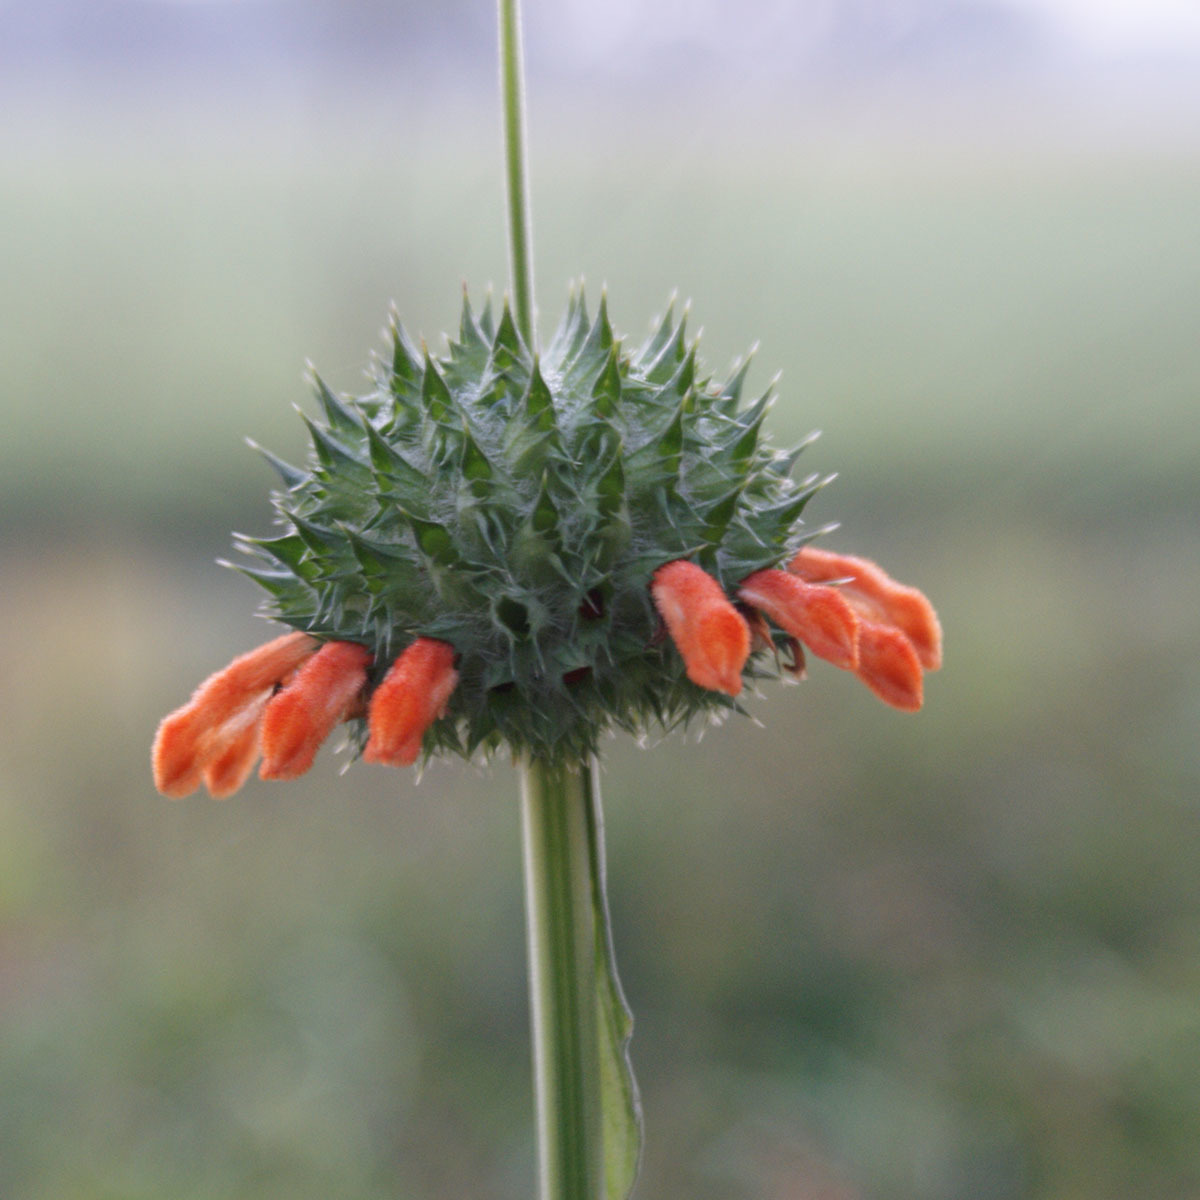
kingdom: Plantae
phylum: Tracheophyta
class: Magnoliopsida
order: Lamiales
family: Lamiaceae
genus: Leonotis
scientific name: Leonotis nepetifolia
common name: Christmas candlestick
